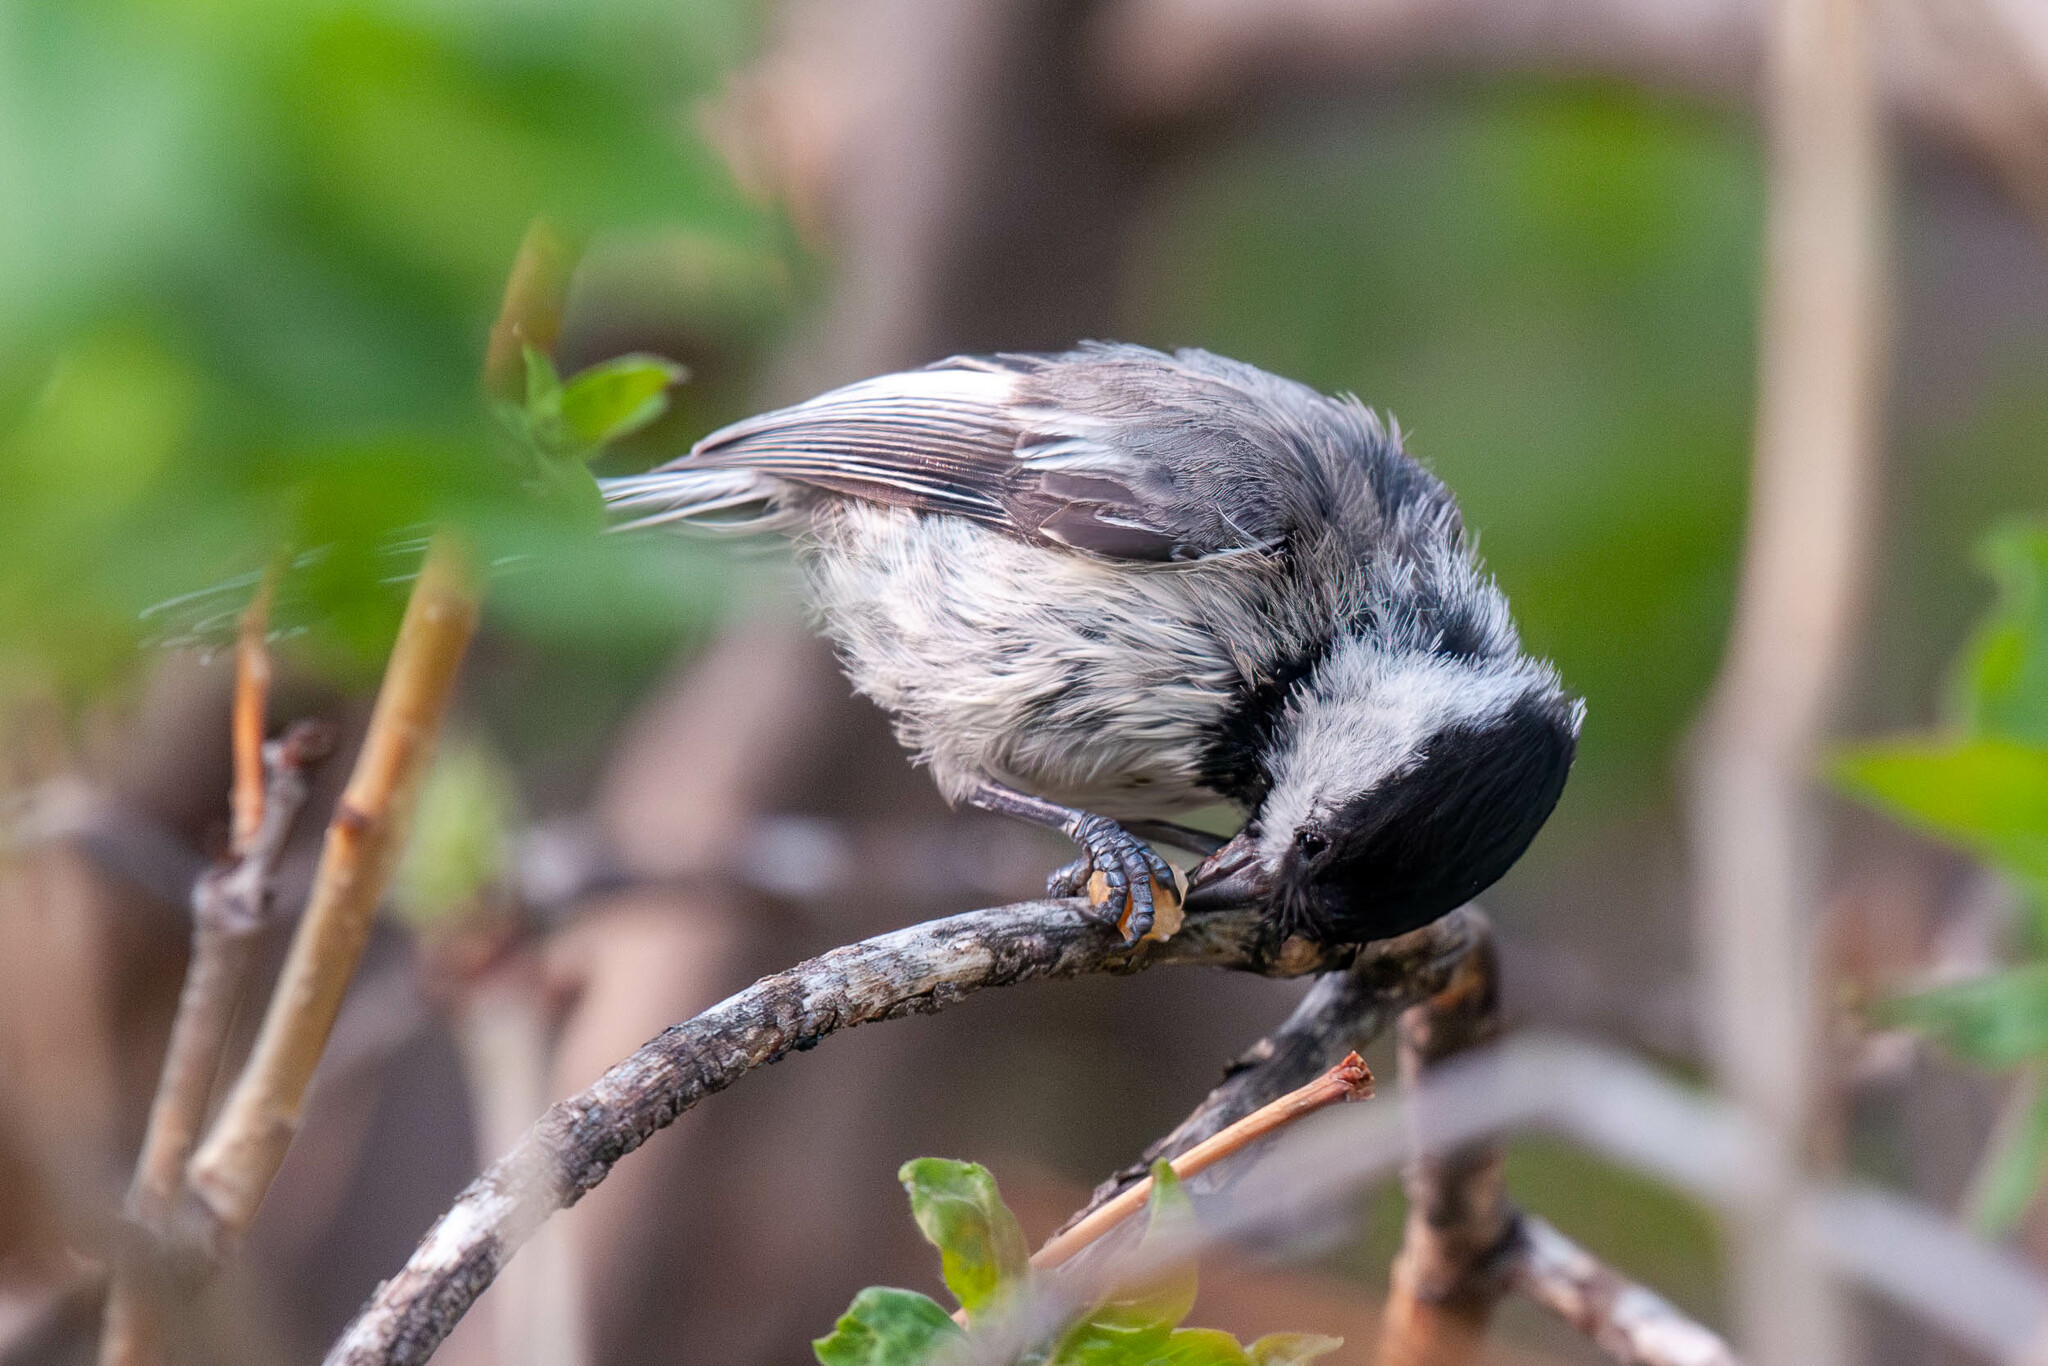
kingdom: Animalia
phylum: Chordata
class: Aves
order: Passeriformes
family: Paridae
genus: Poecile
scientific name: Poecile atricapillus
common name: Black-capped chickadee
